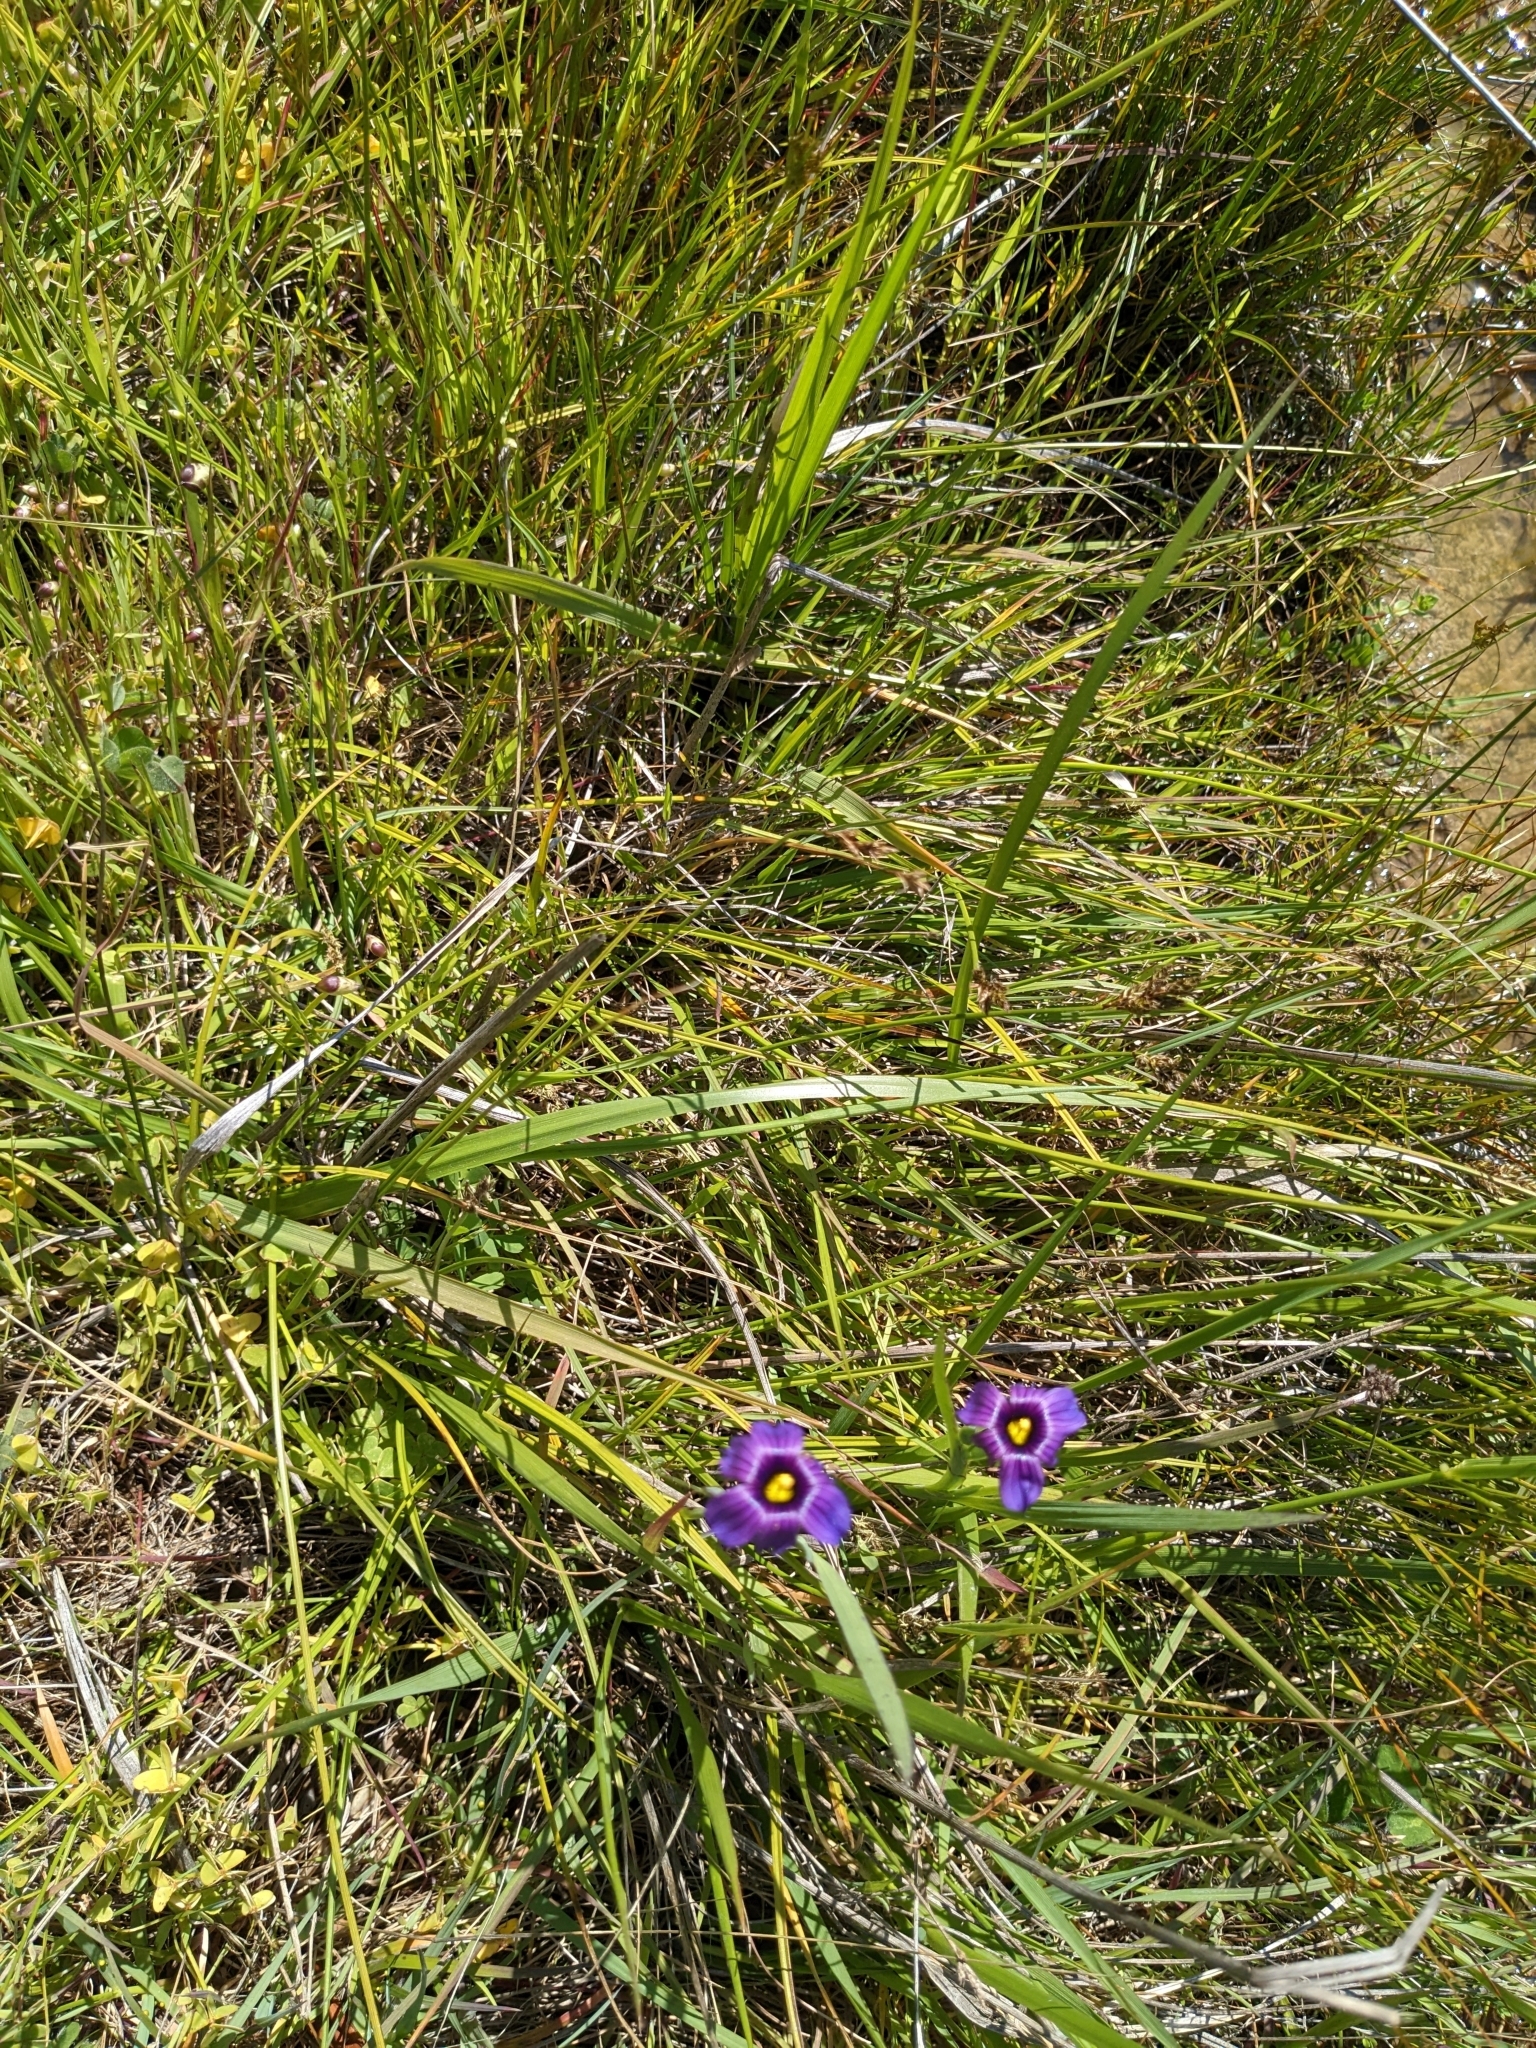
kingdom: Plantae
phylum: Tracheophyta
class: Liliopsida
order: Asparagales
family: Iridaceae
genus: Sisyrinchium
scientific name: Sisyrinchium bellum
